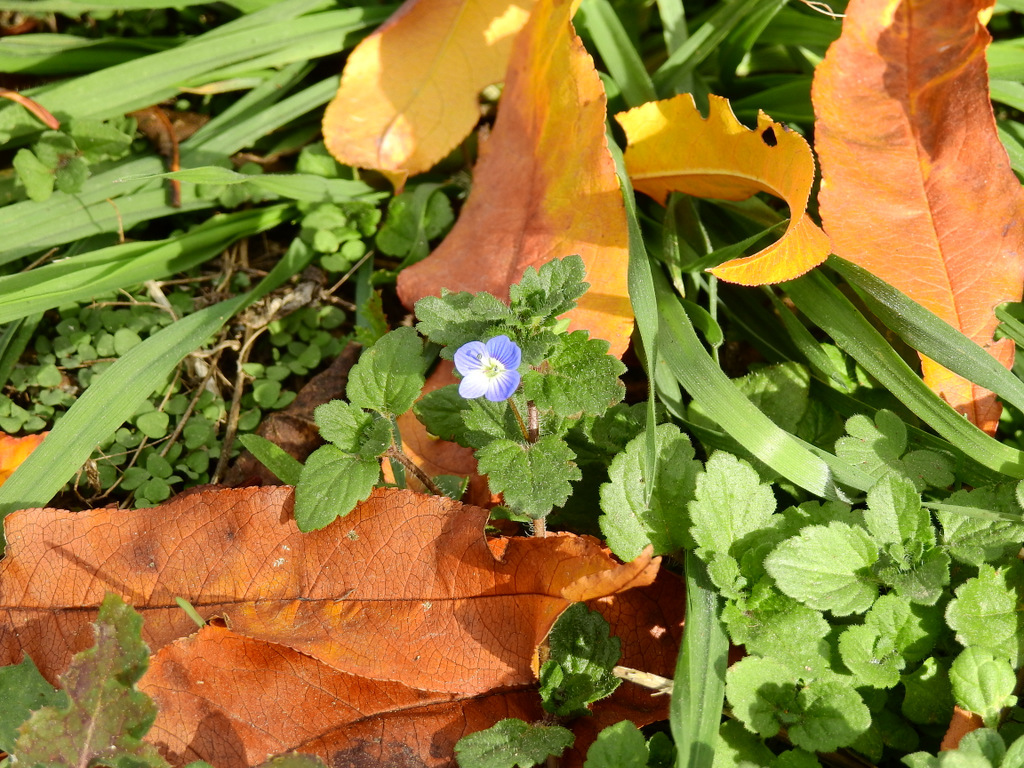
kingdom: Plantae
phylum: Tracheophyta
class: Magnoliopsida
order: Lamiales
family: Plantaginaceae
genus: Veronica
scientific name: Veronica persica
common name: Common field-speedwell
